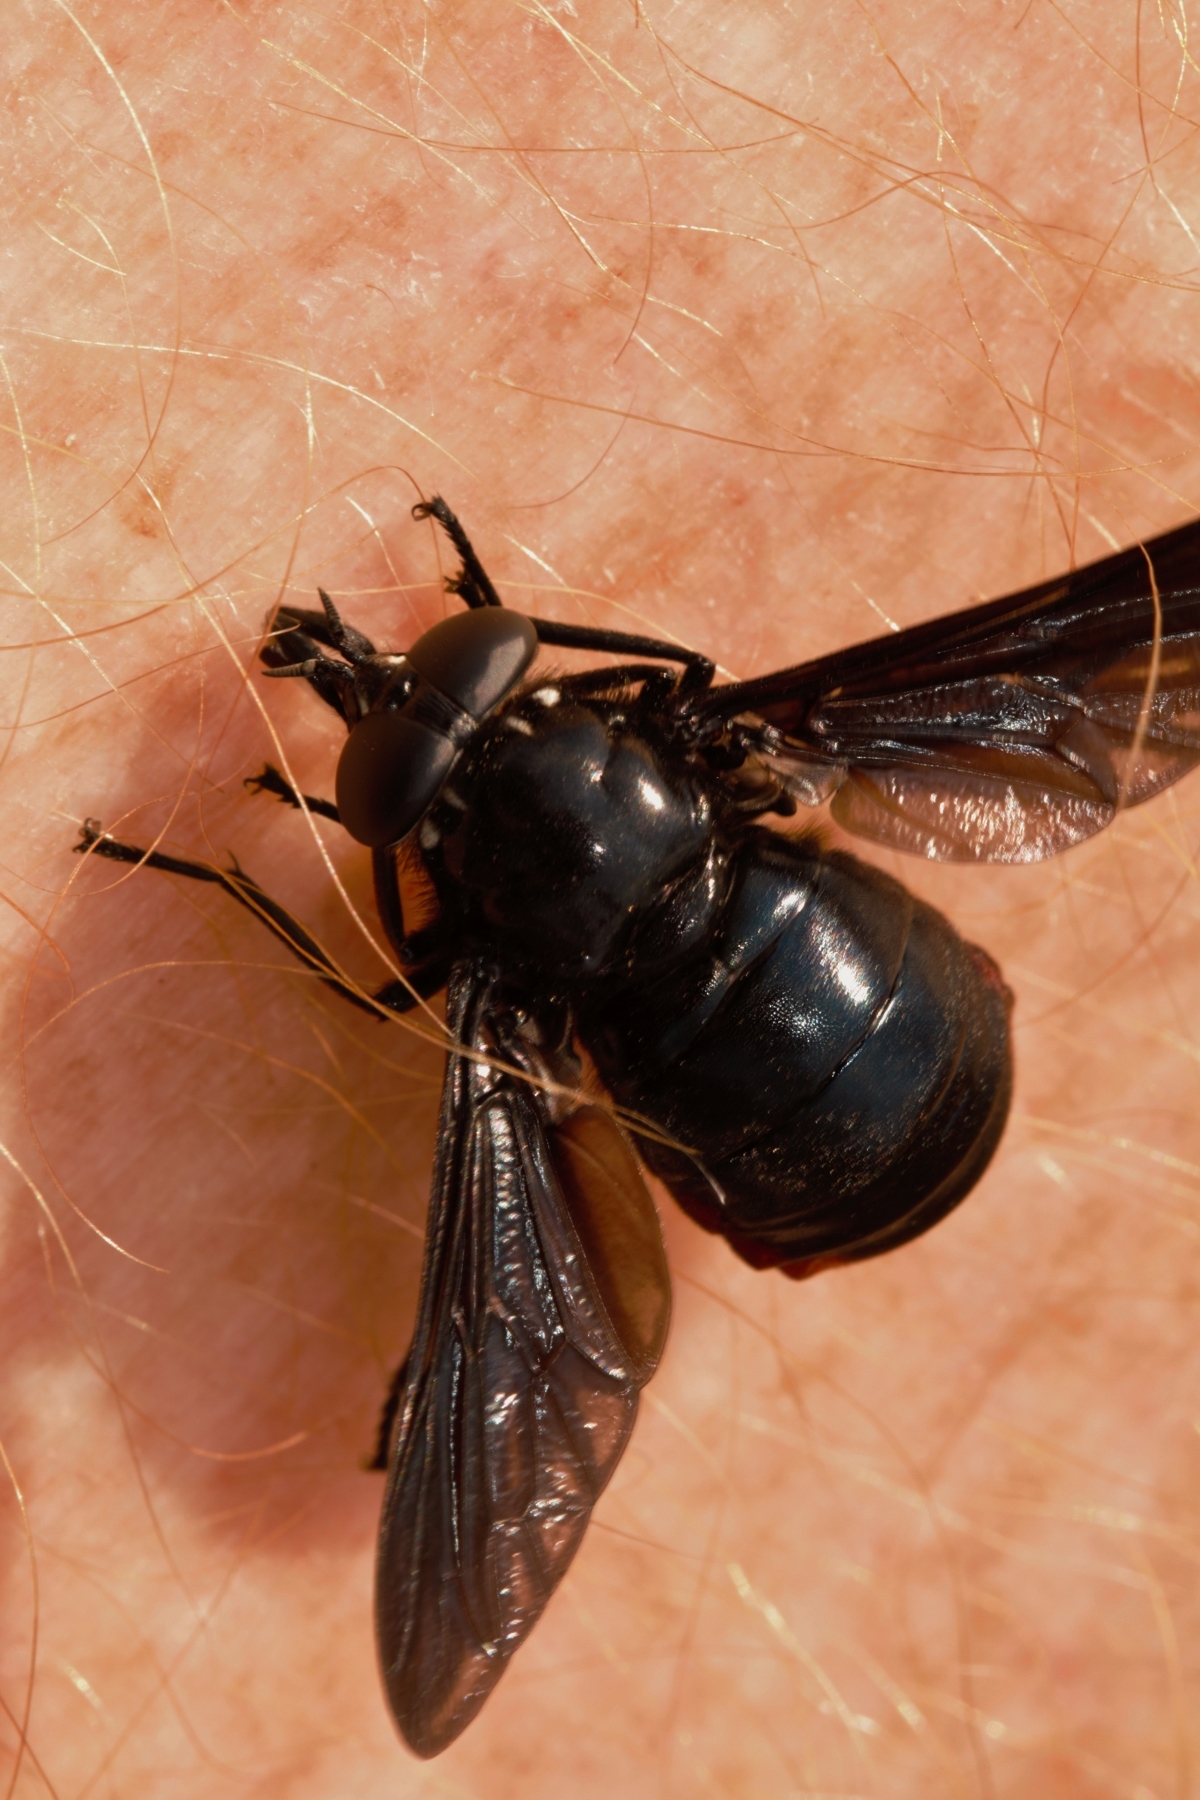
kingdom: Animalia
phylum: Arthropoda
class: Insecta
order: Diptera
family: Tabanidae
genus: Philoliche
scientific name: Philoliche rubramarginata
